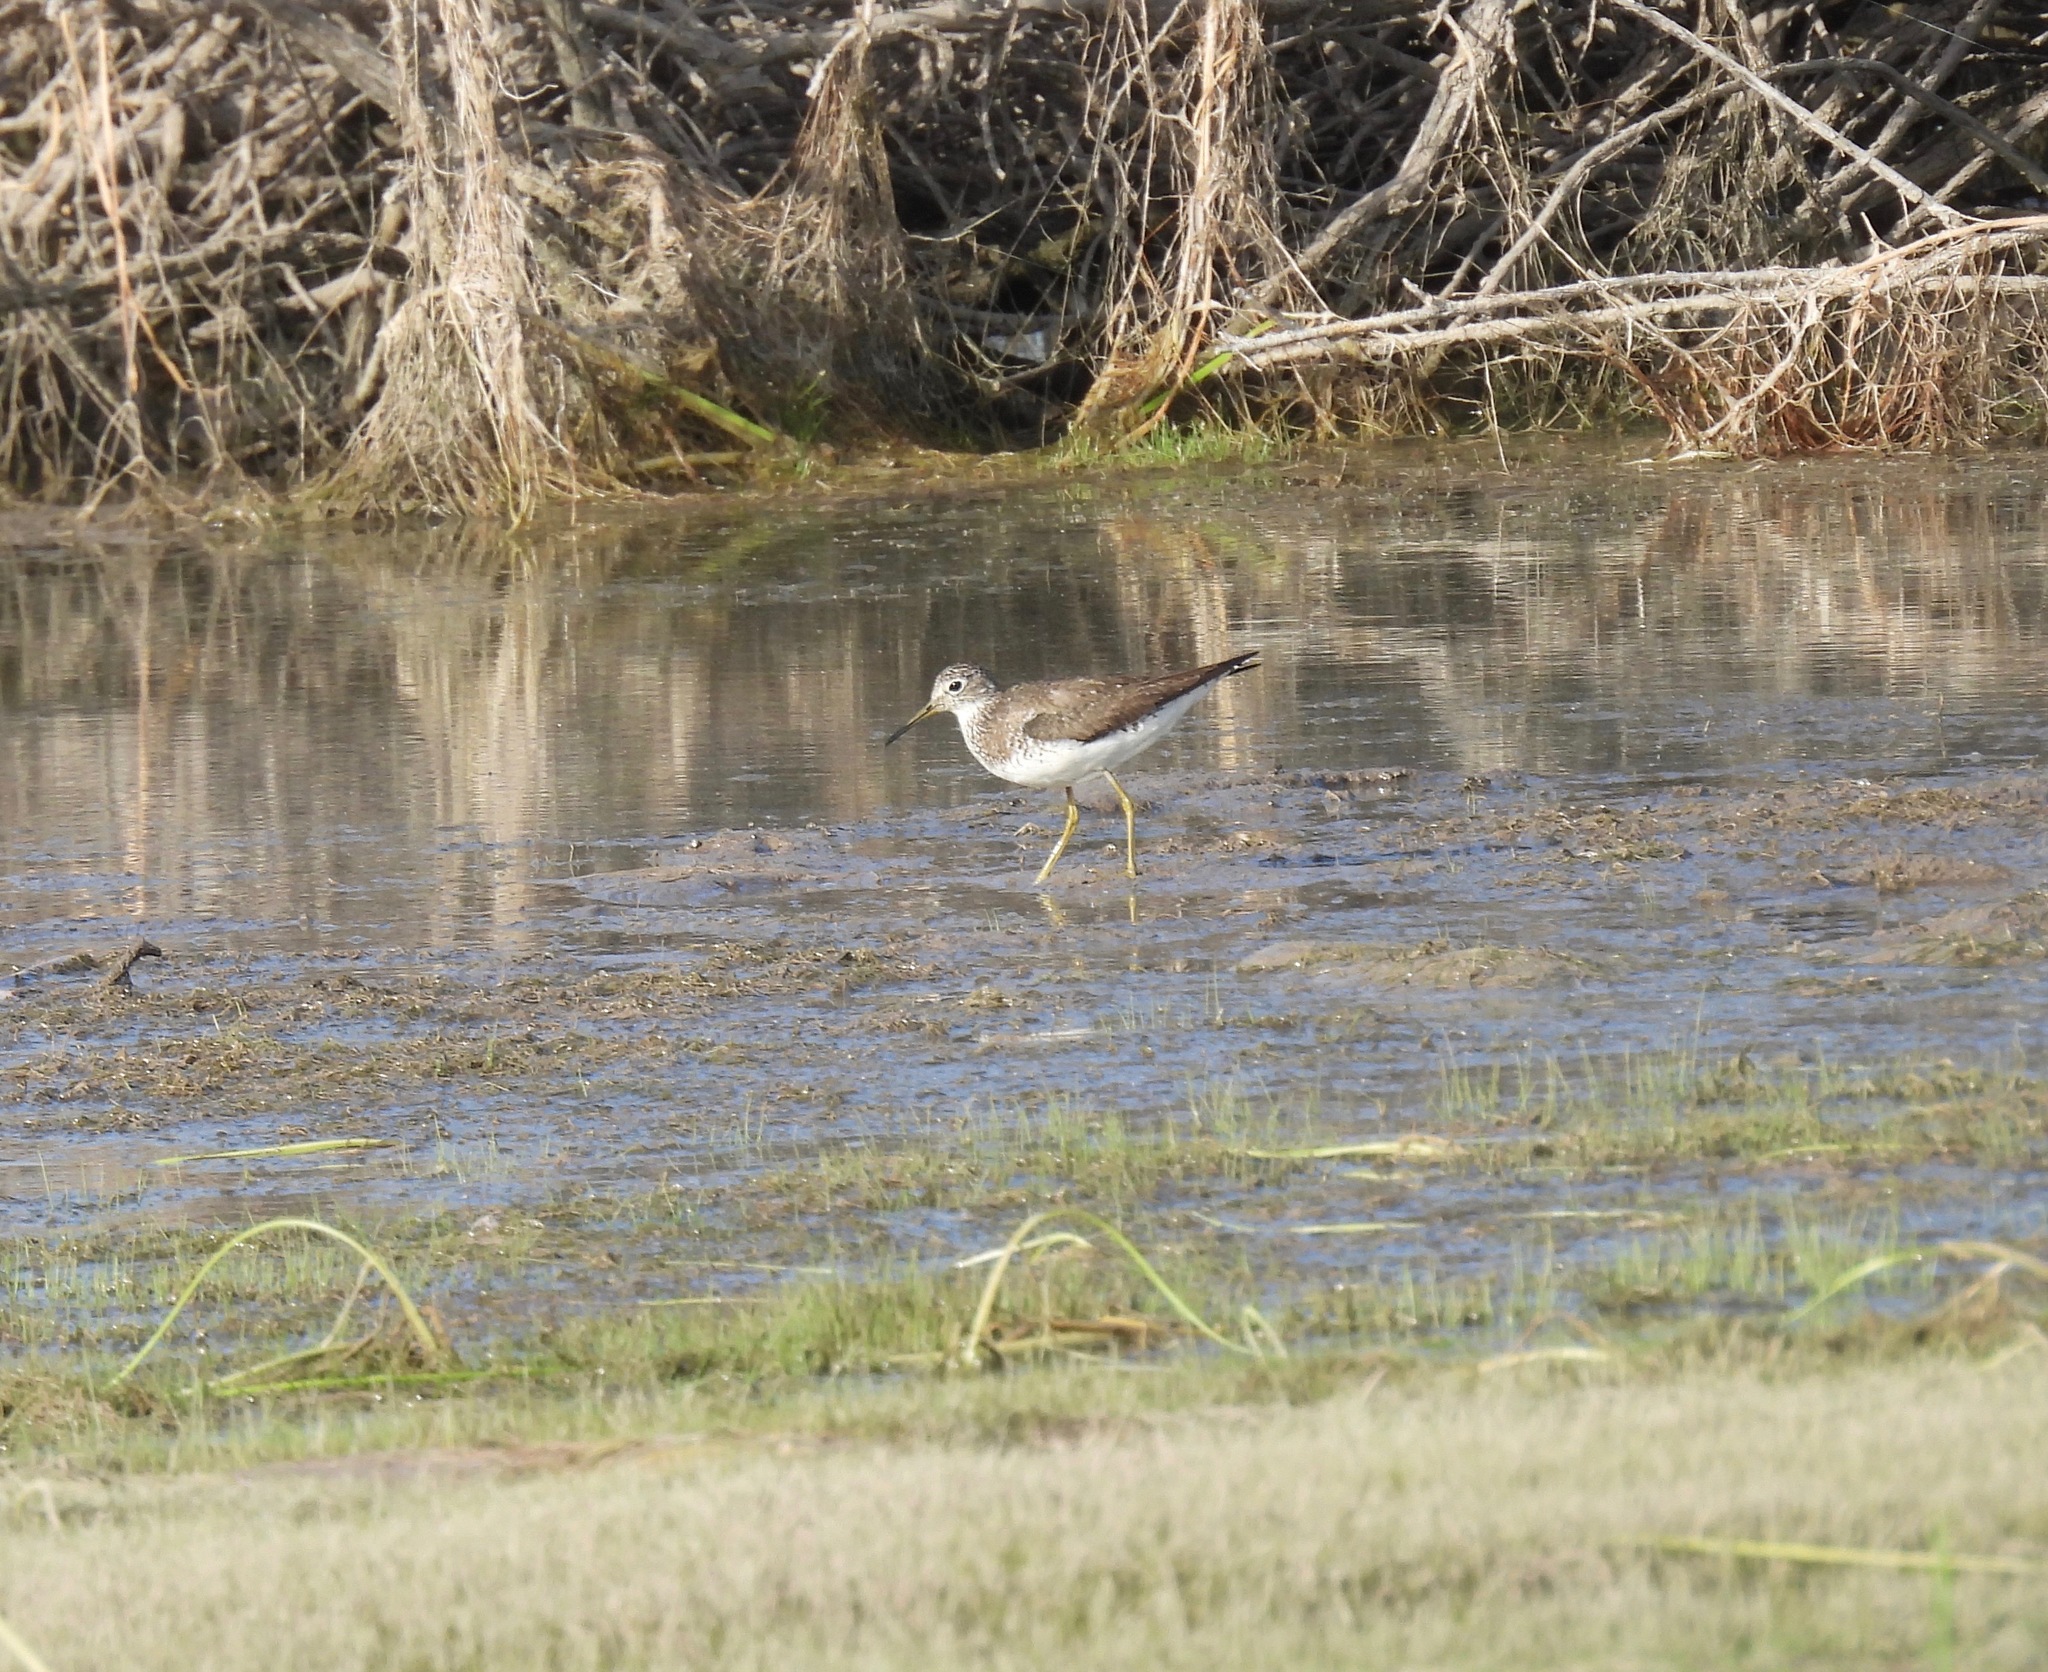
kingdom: Animalia
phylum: Chordata
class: Aves
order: Charadriiformes
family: Scolopacidae
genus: Tringa
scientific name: Tringa solitaria
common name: Solitary sandpiper
